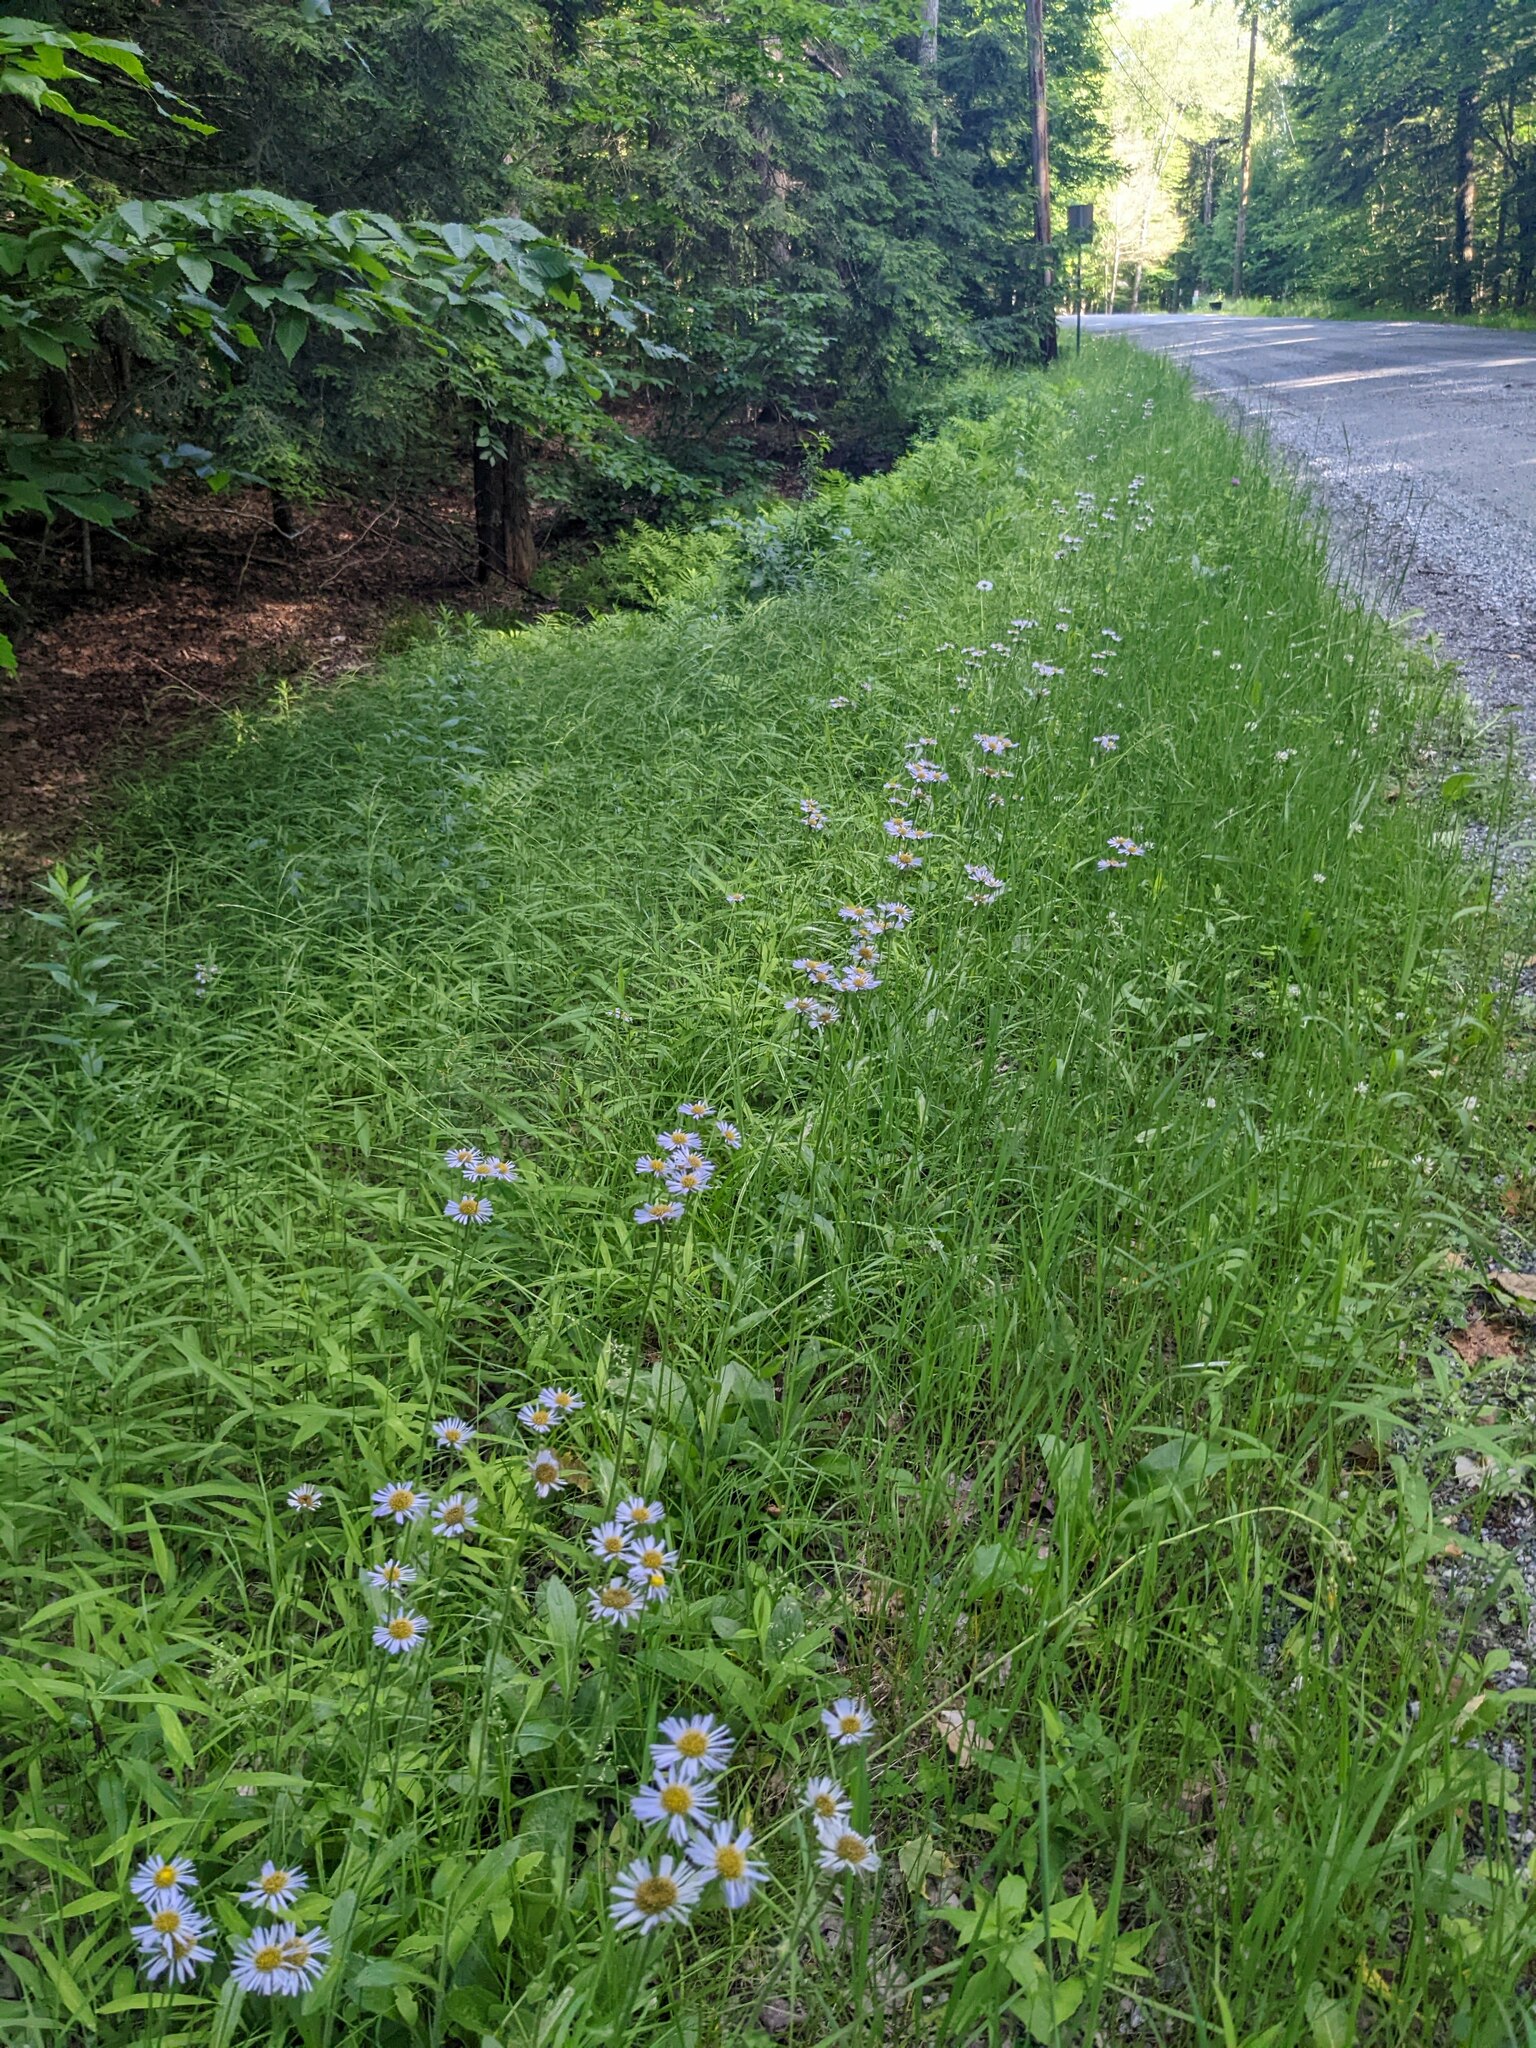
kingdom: Plantae
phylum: Tracheophyta
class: Magnoliopsida
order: Asterales
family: Asteraceae
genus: Erigeron
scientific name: Erigeron pulchellus
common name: Hairy fleabane
